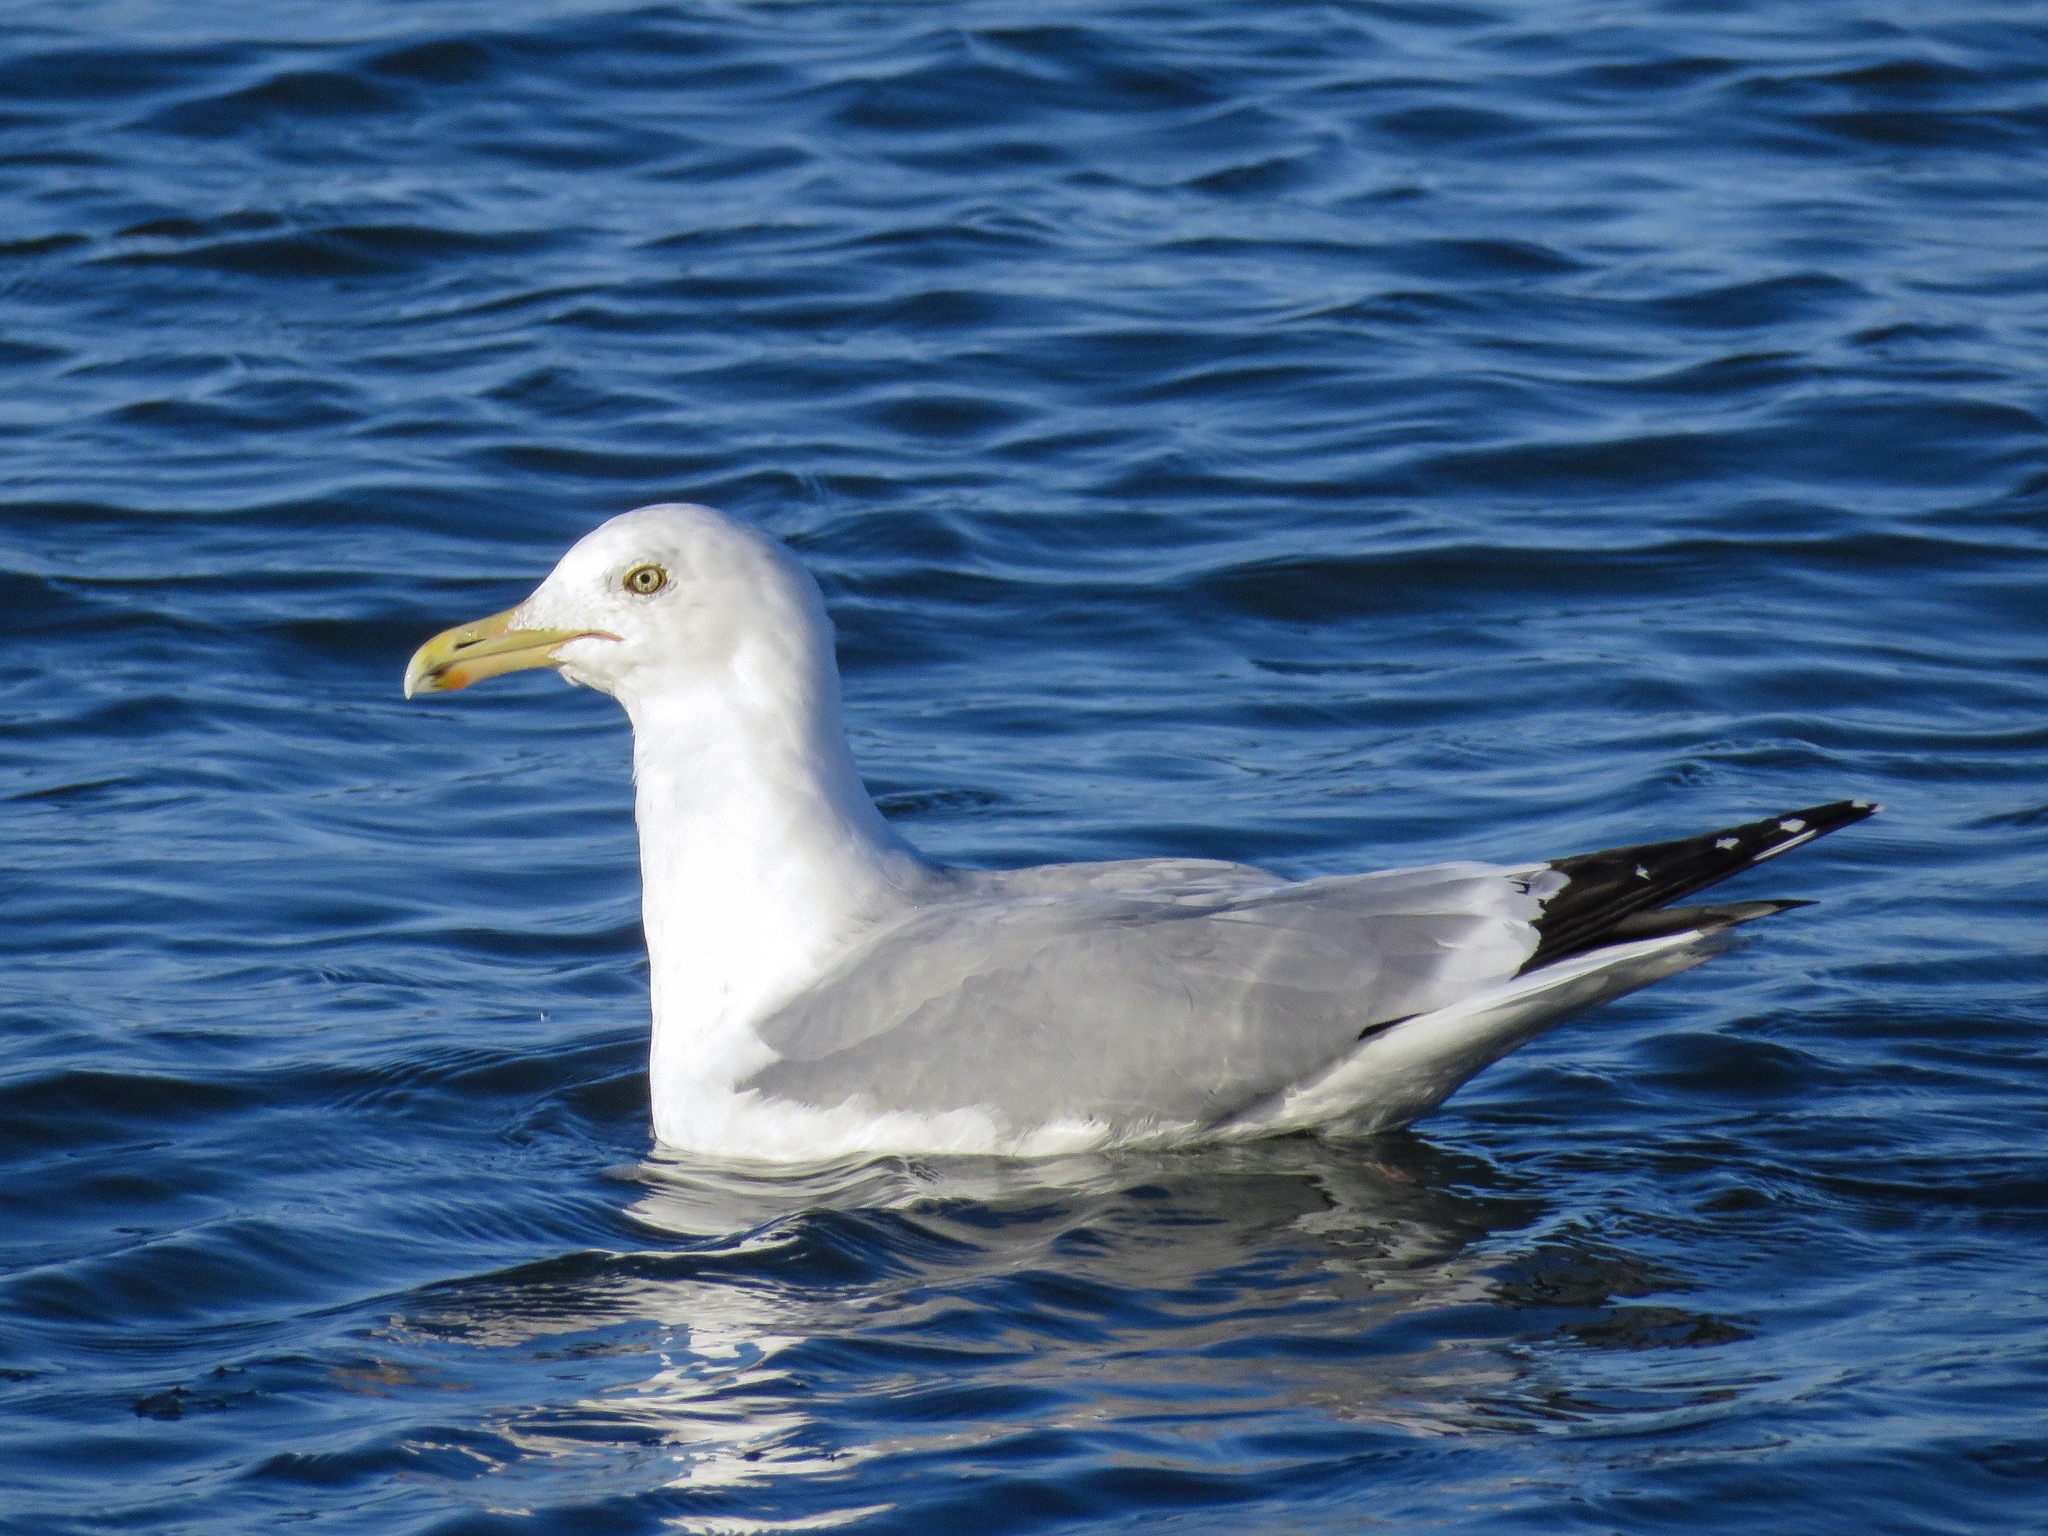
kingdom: Animalia
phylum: Chordata
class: Aves
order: Charadriiformes
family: Laridae
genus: Larus
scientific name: Larus argentatus
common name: Herring gull
